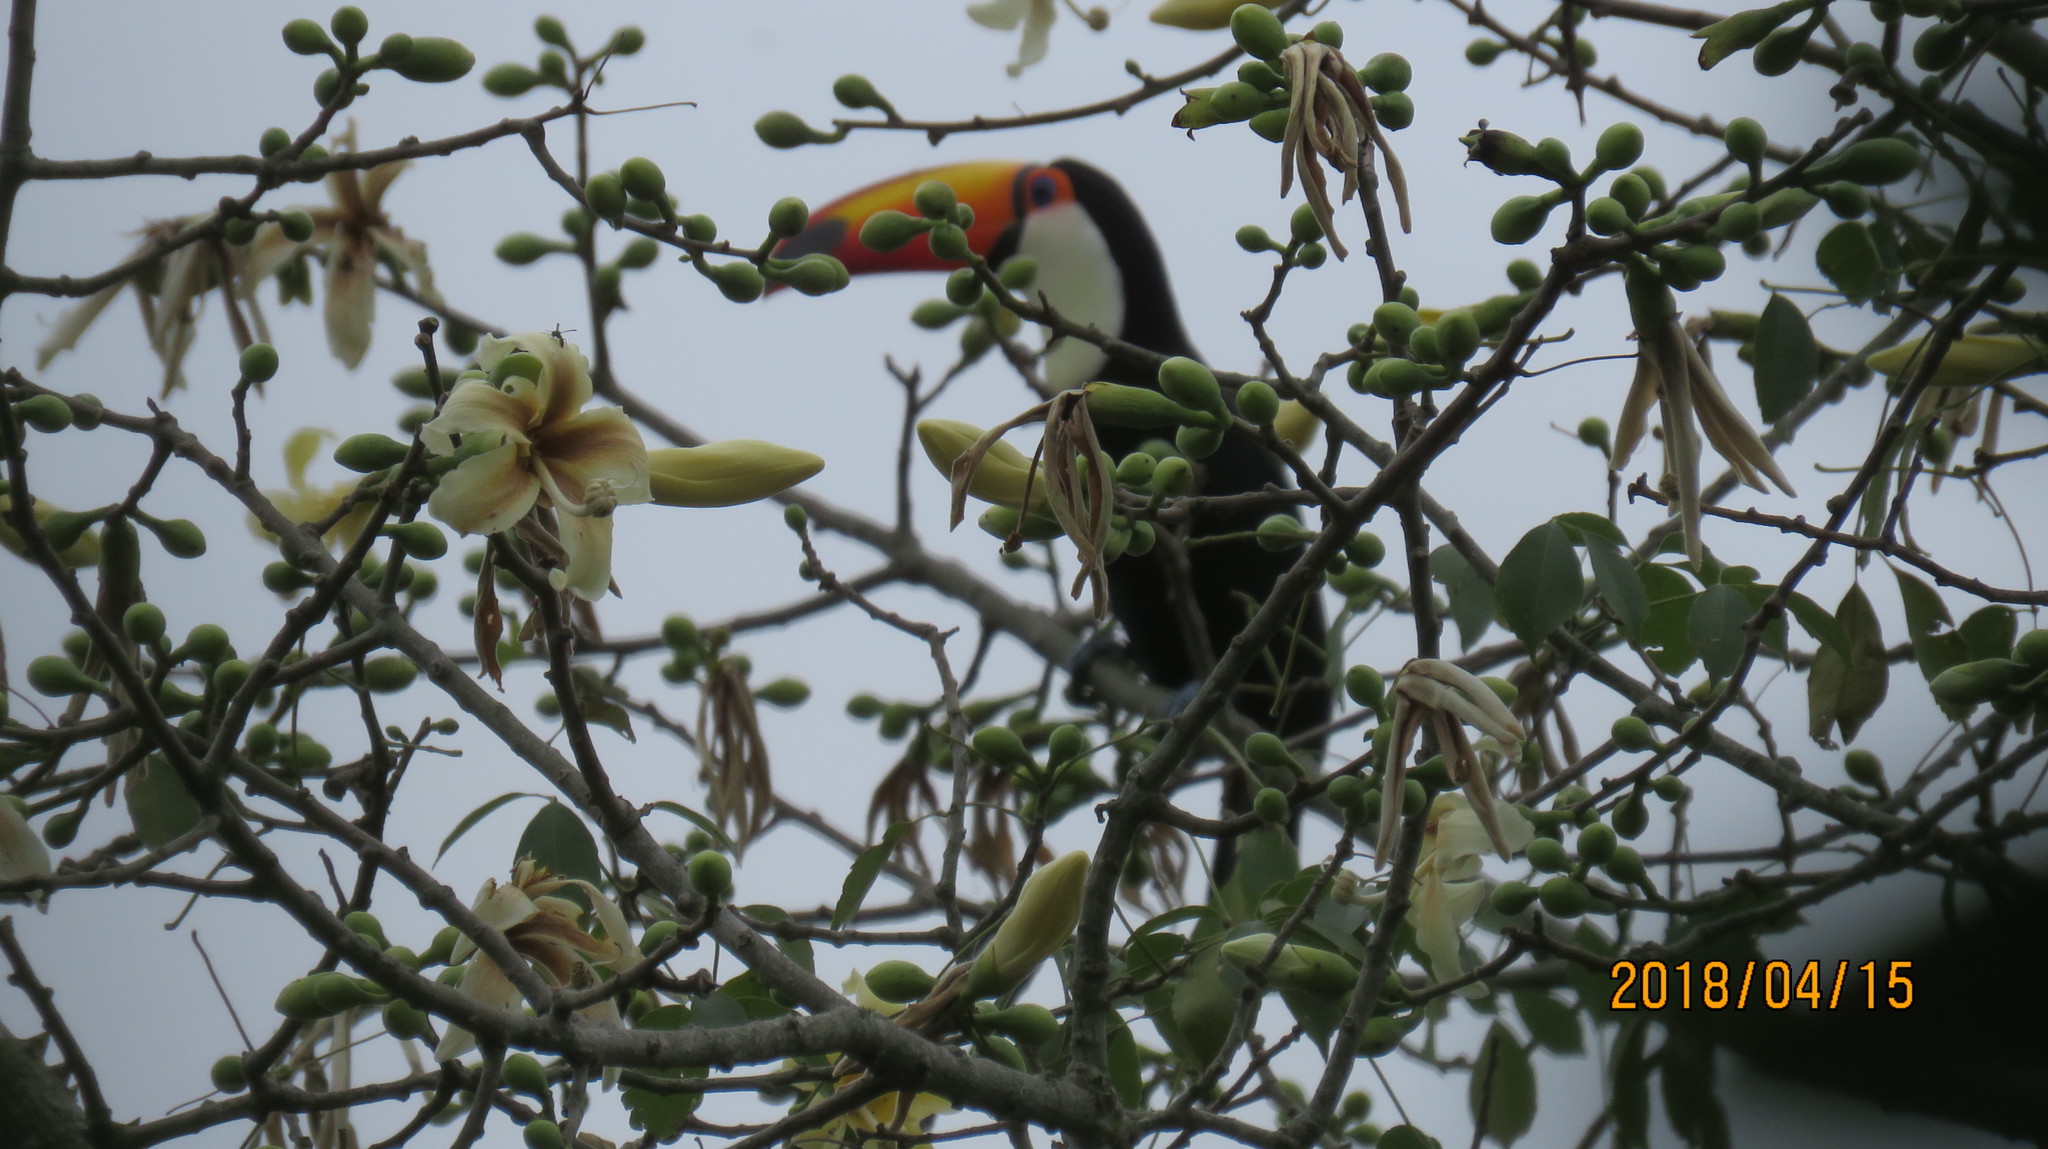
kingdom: Animalia
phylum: Chordata
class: Aves
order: Piciformes
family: Ramphastidae
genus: Ramphastos
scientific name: Ramphastos toco
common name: Toco toucan
